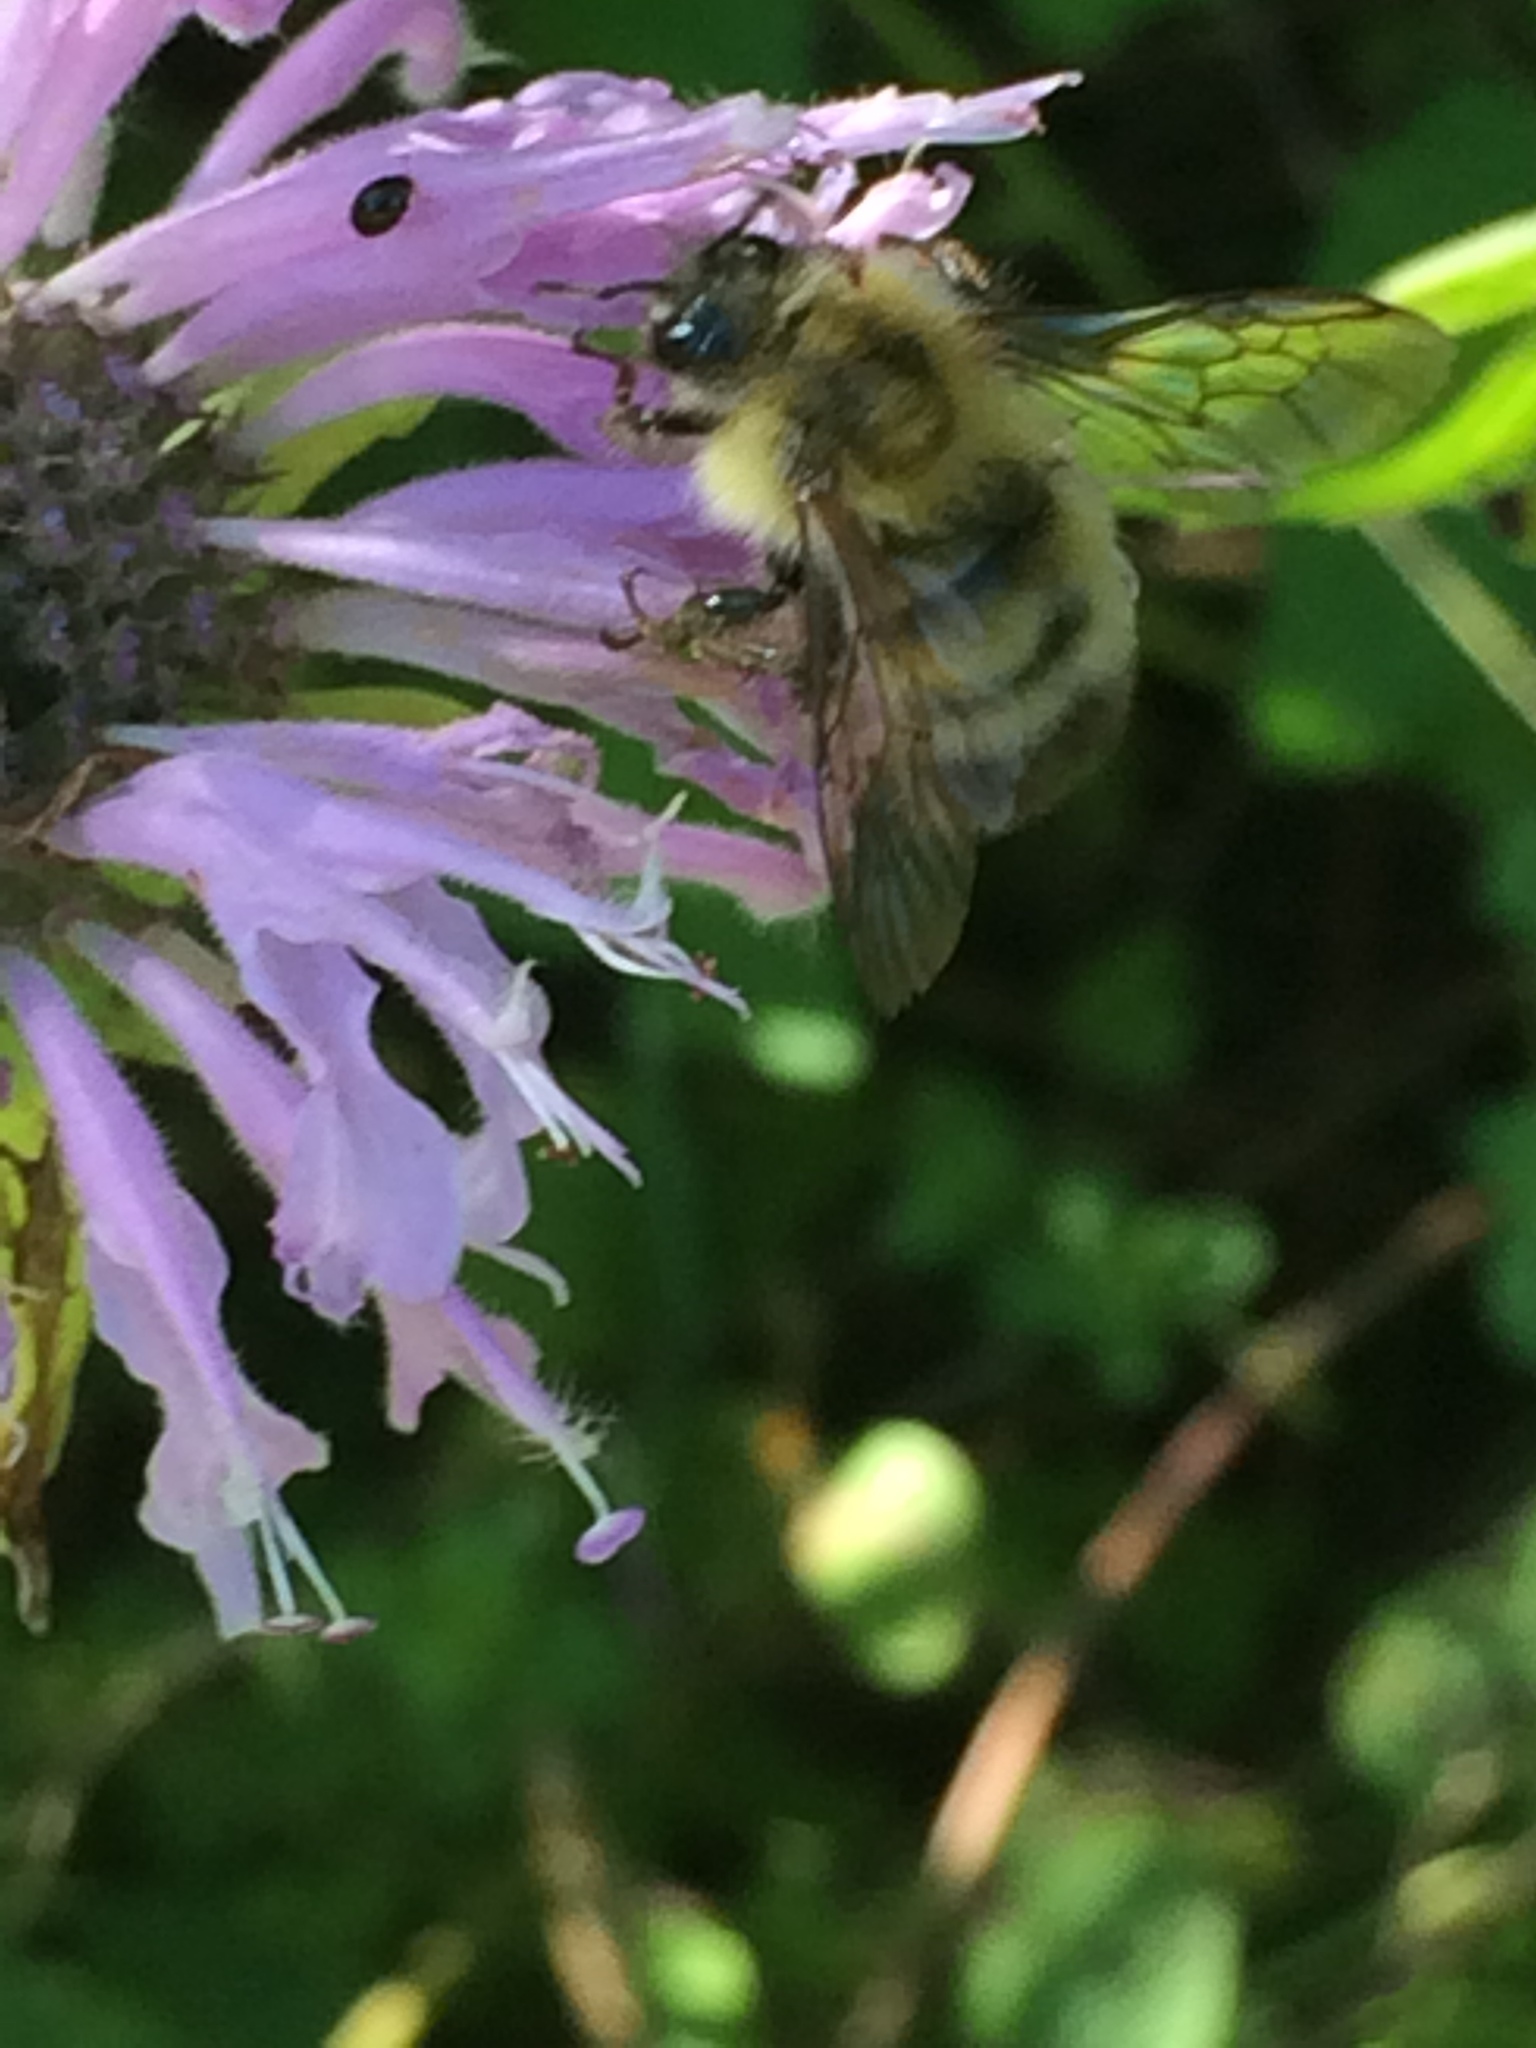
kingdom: Animalia
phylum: Arthropoda
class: Insecta
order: Hymenoptera
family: Apidae
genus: Bombus
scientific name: Bombus perplexus
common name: Confusing bumble bee
